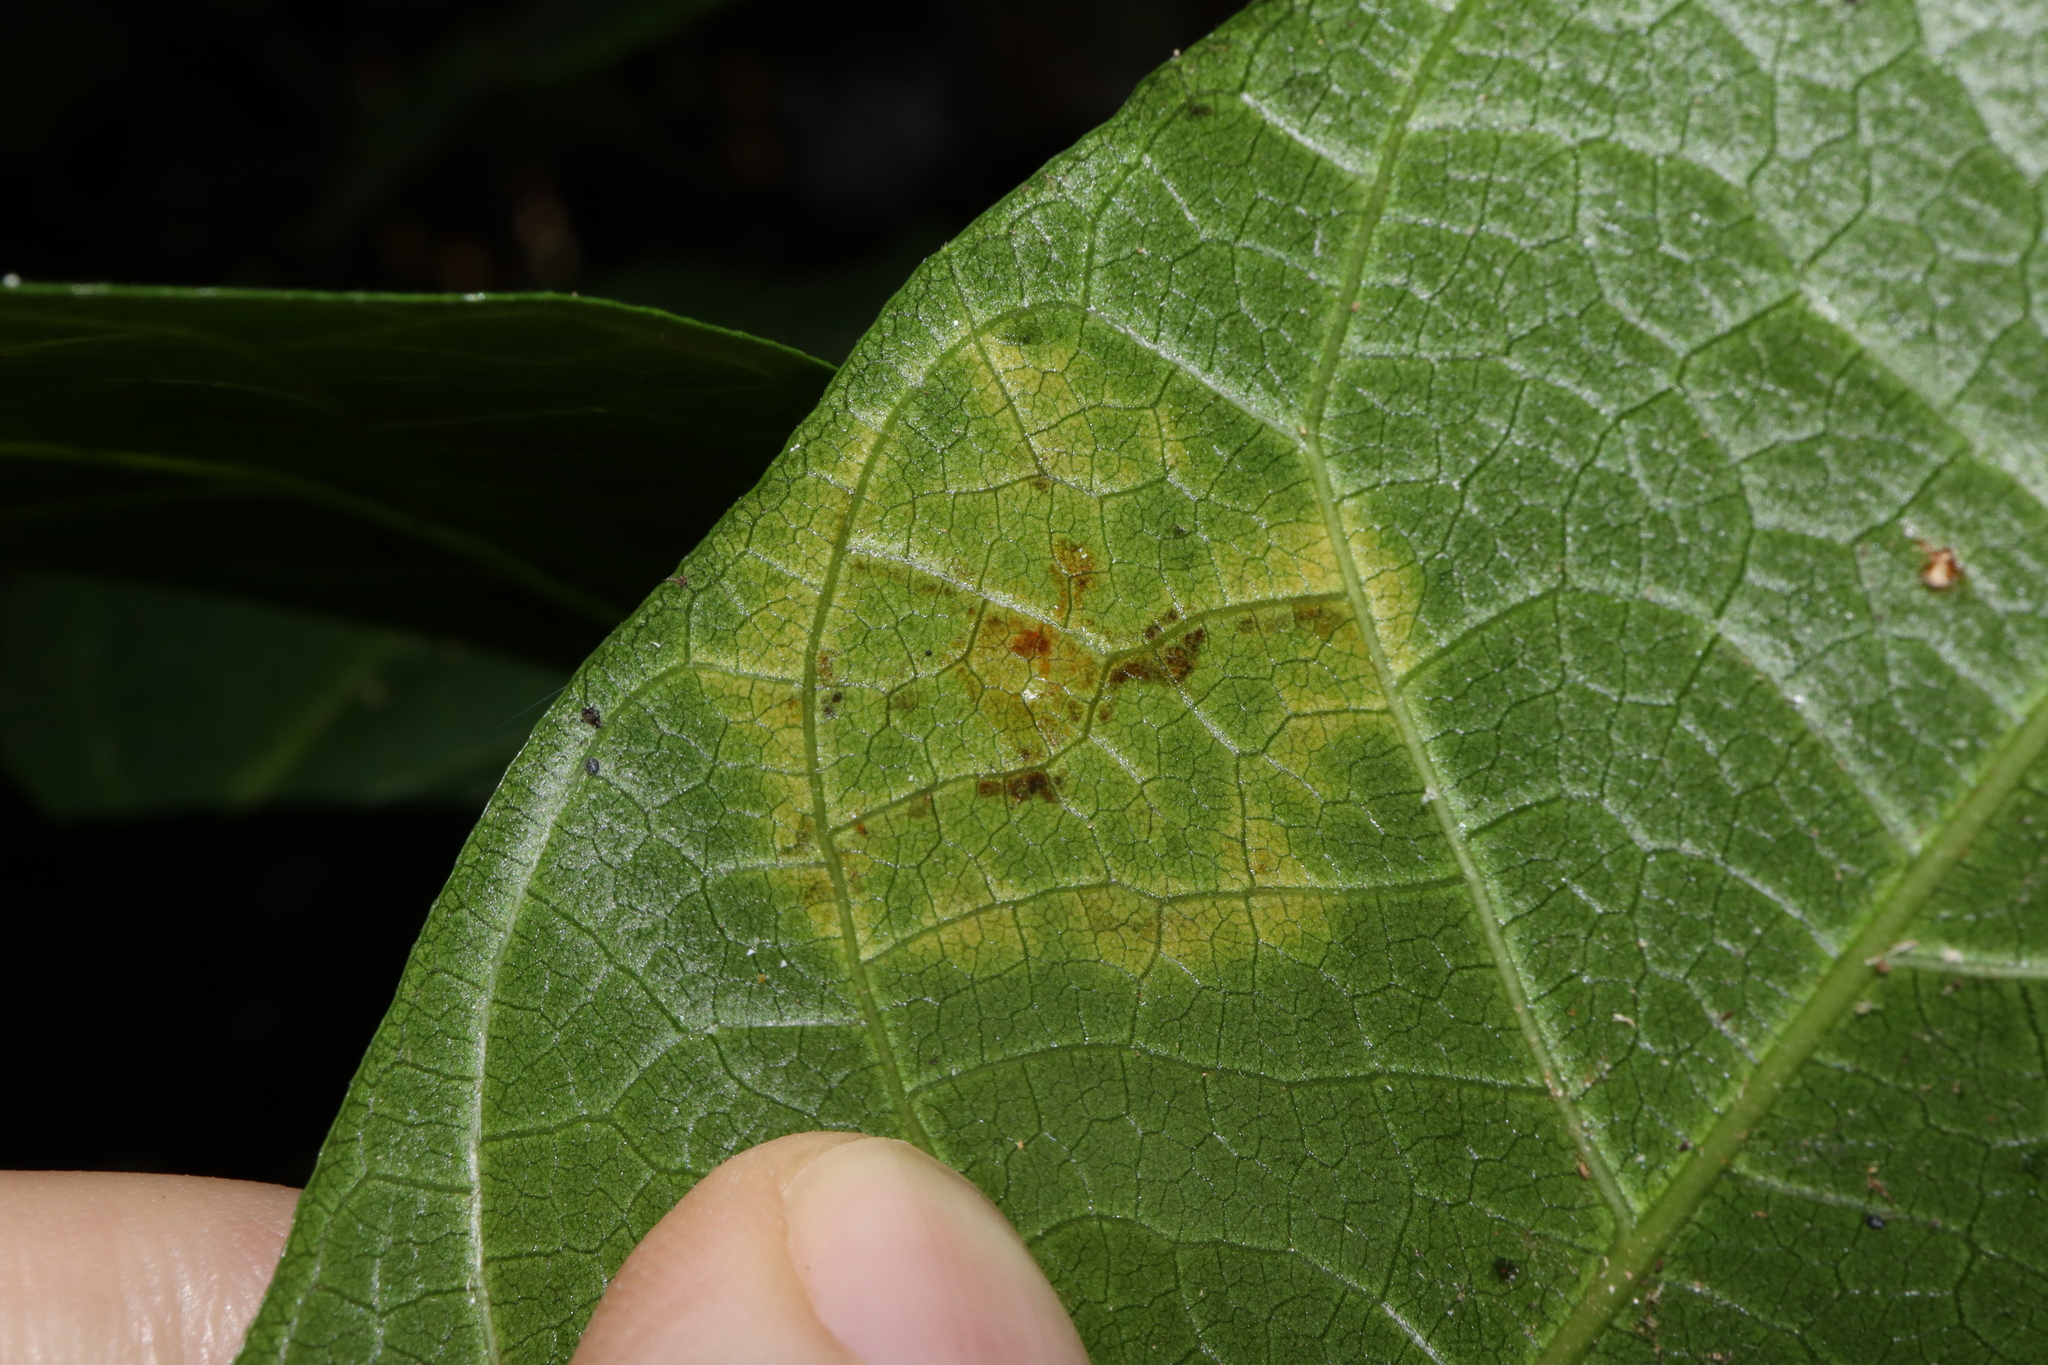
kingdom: Fungi
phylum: Ascomycota
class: Sordariomycetes
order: Phyllachorales
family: Phyllachoraceae
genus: Phyllachora
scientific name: Phyllachora infectoria
